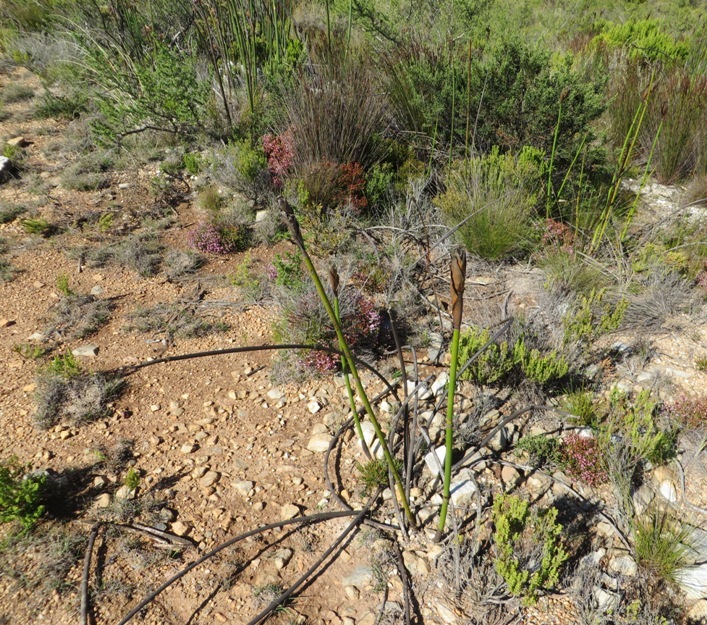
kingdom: Plantae
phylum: Tracheophyta
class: Liliopsida
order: Poales
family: Restionaceae
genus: Elegia
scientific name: Elegia mucronata
